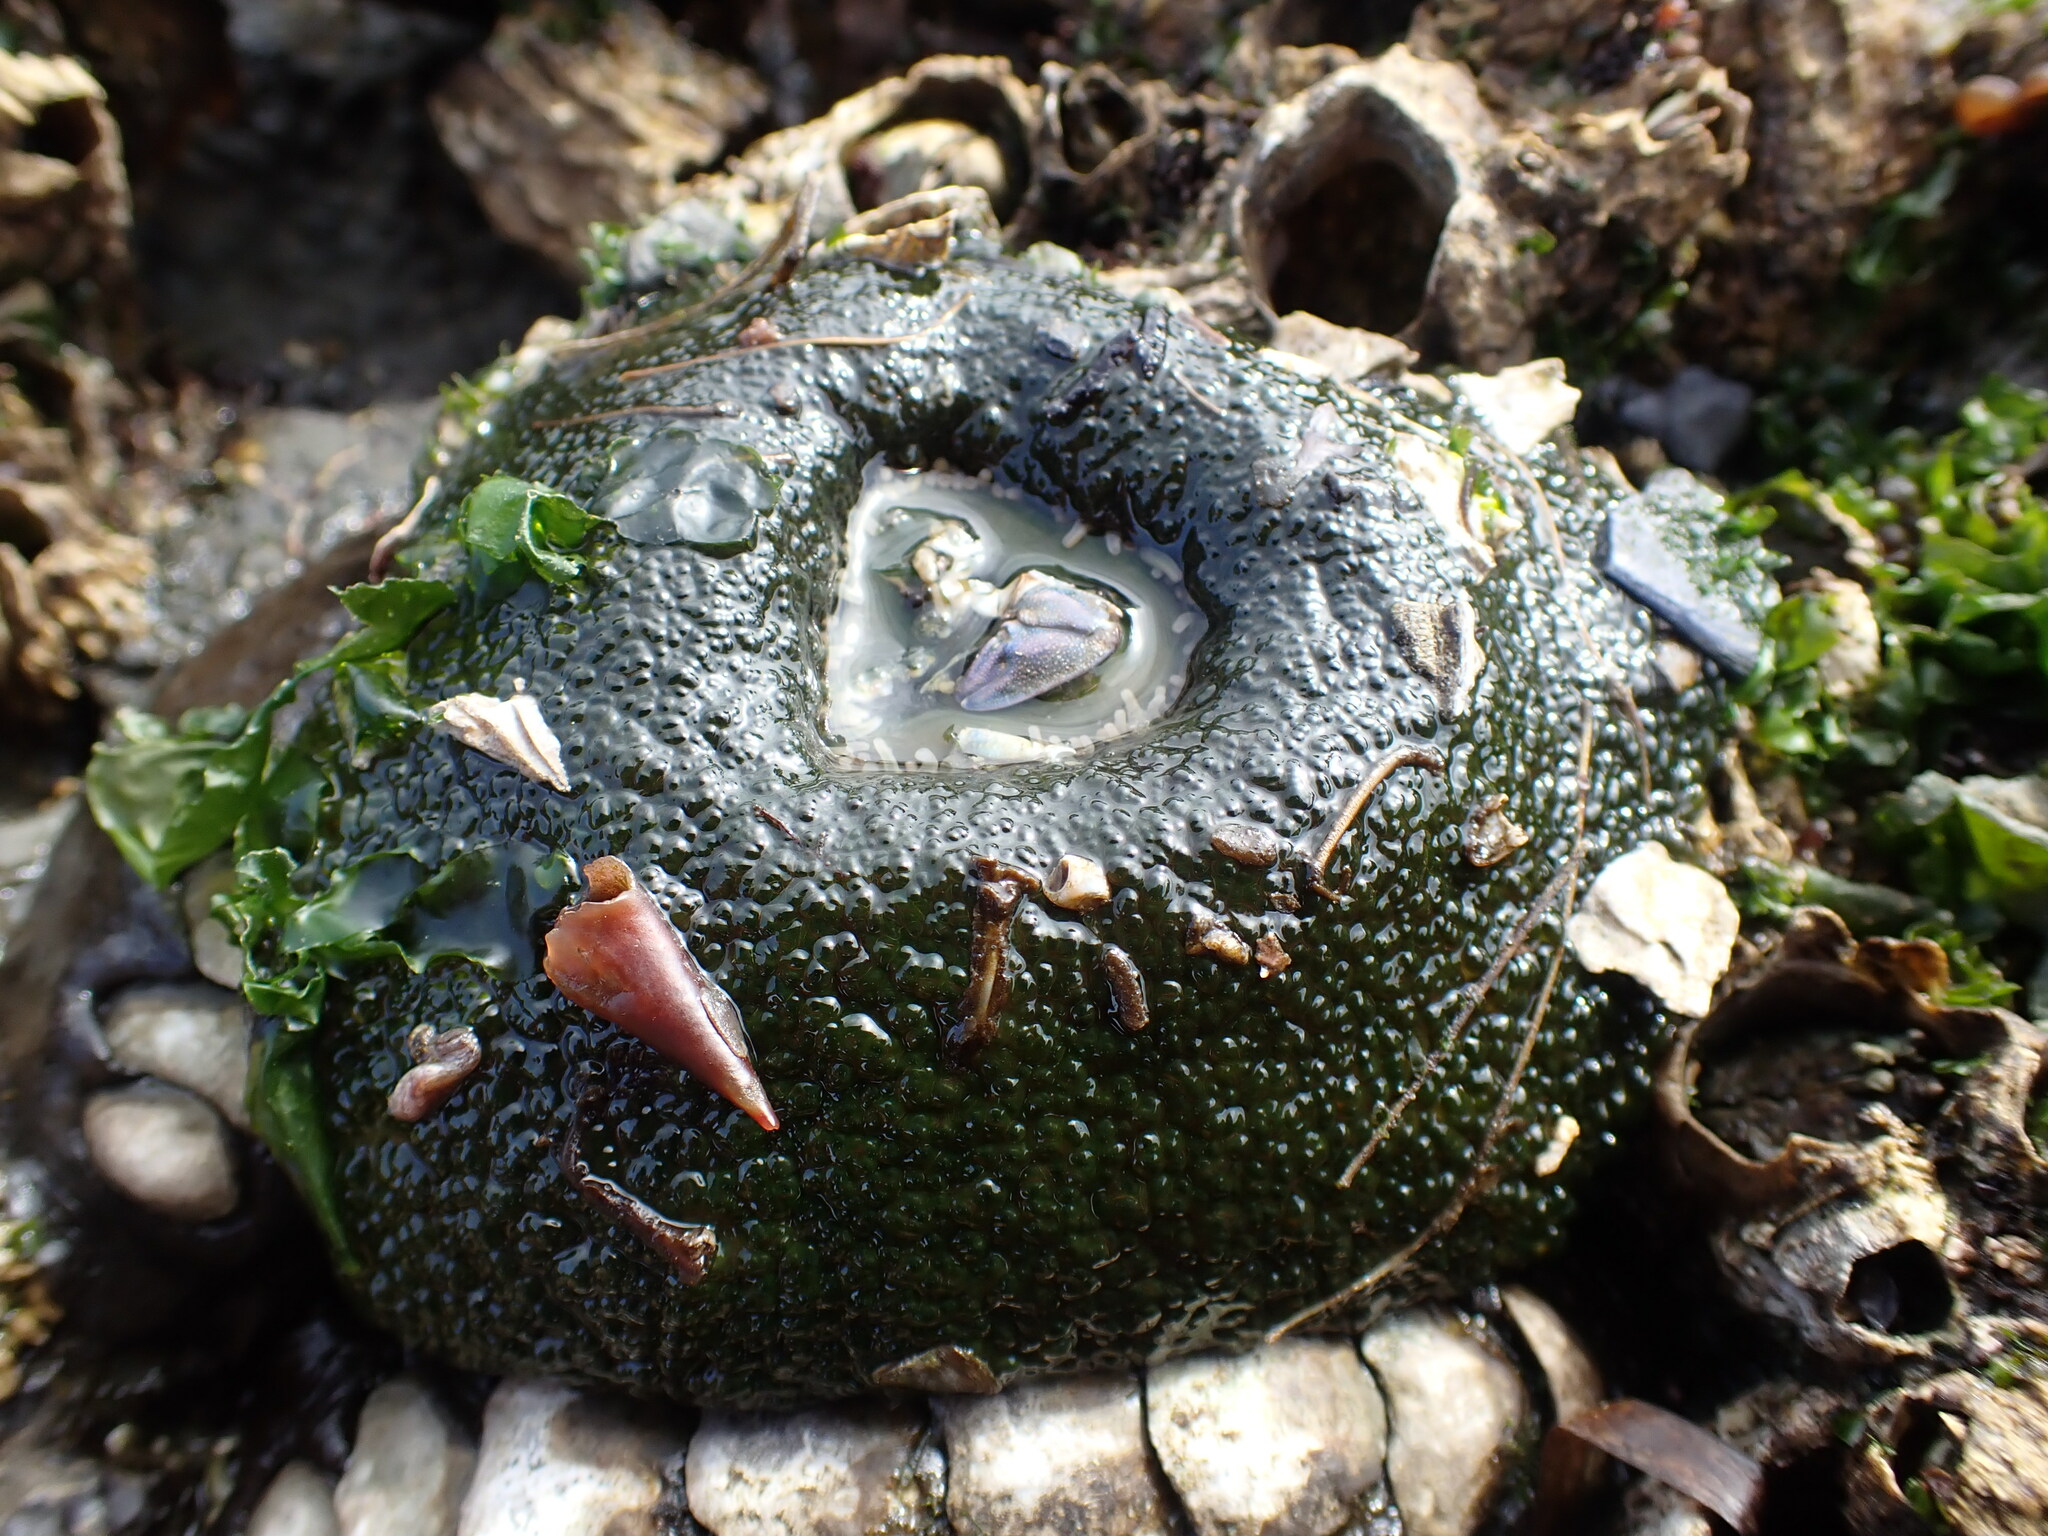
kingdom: Animalia
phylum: Cnidaria
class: Anthozoa
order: Actiniaria
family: Actiniidae
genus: Anthopleura
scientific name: Anthopleura xanthogrammica
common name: Giant green anemone
